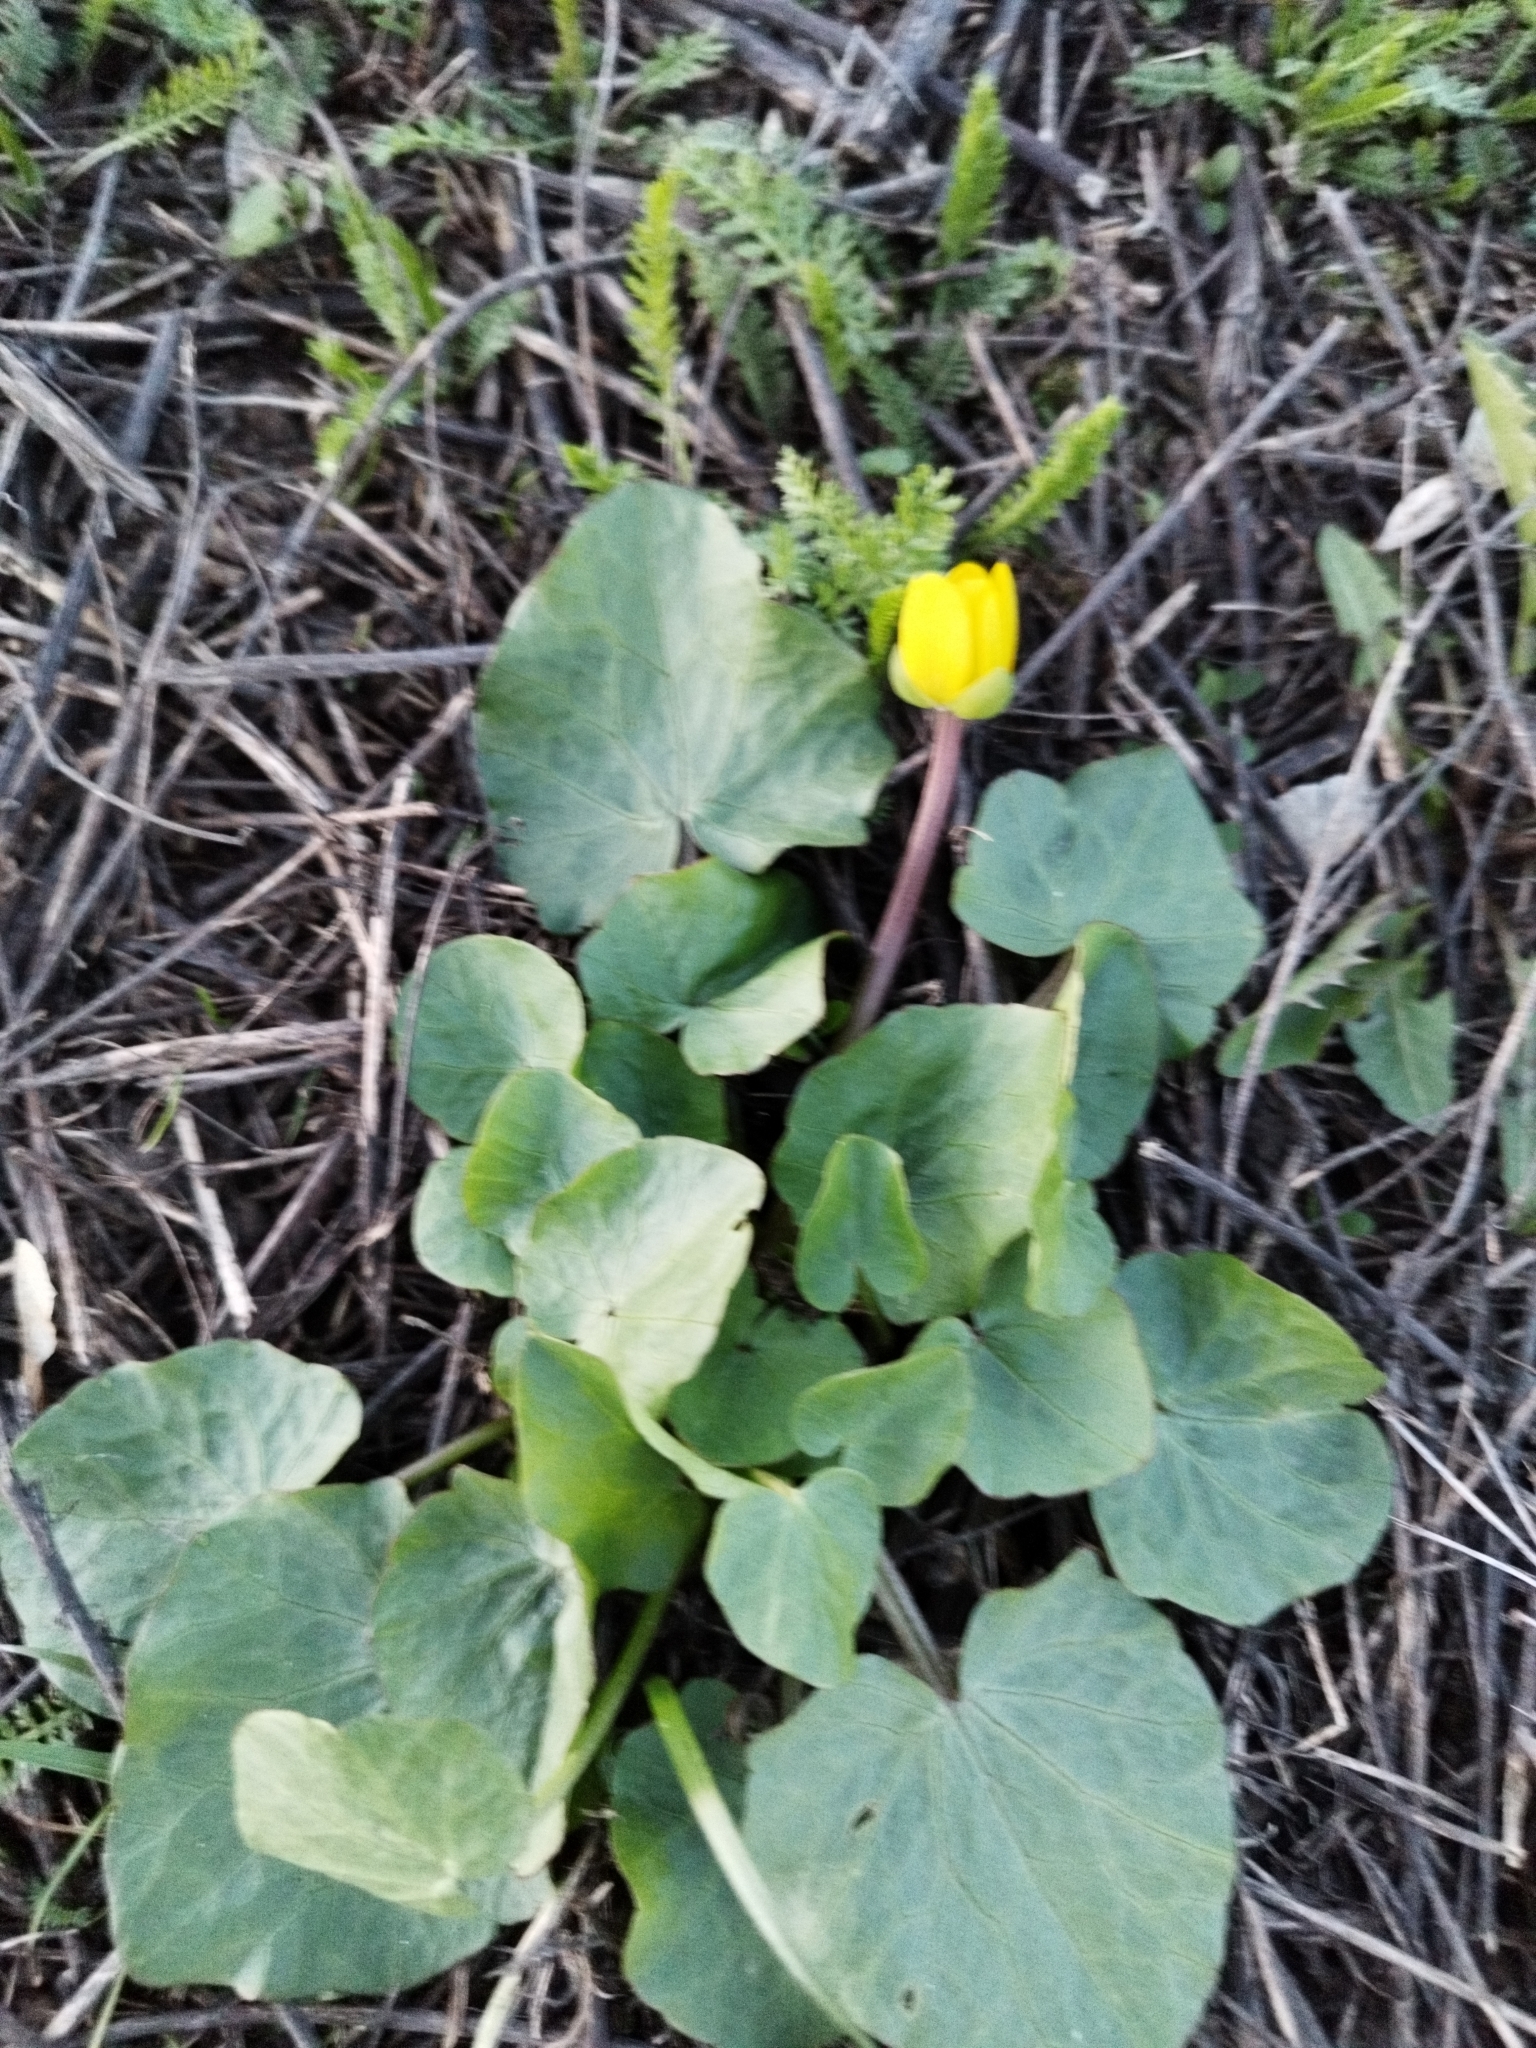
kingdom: Plantae
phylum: Tracheophyta
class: Magnoliopsida
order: Ranunculales
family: Ranunculaceae
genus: Ficaria
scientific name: Ficaria verna
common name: Lesser celandine
